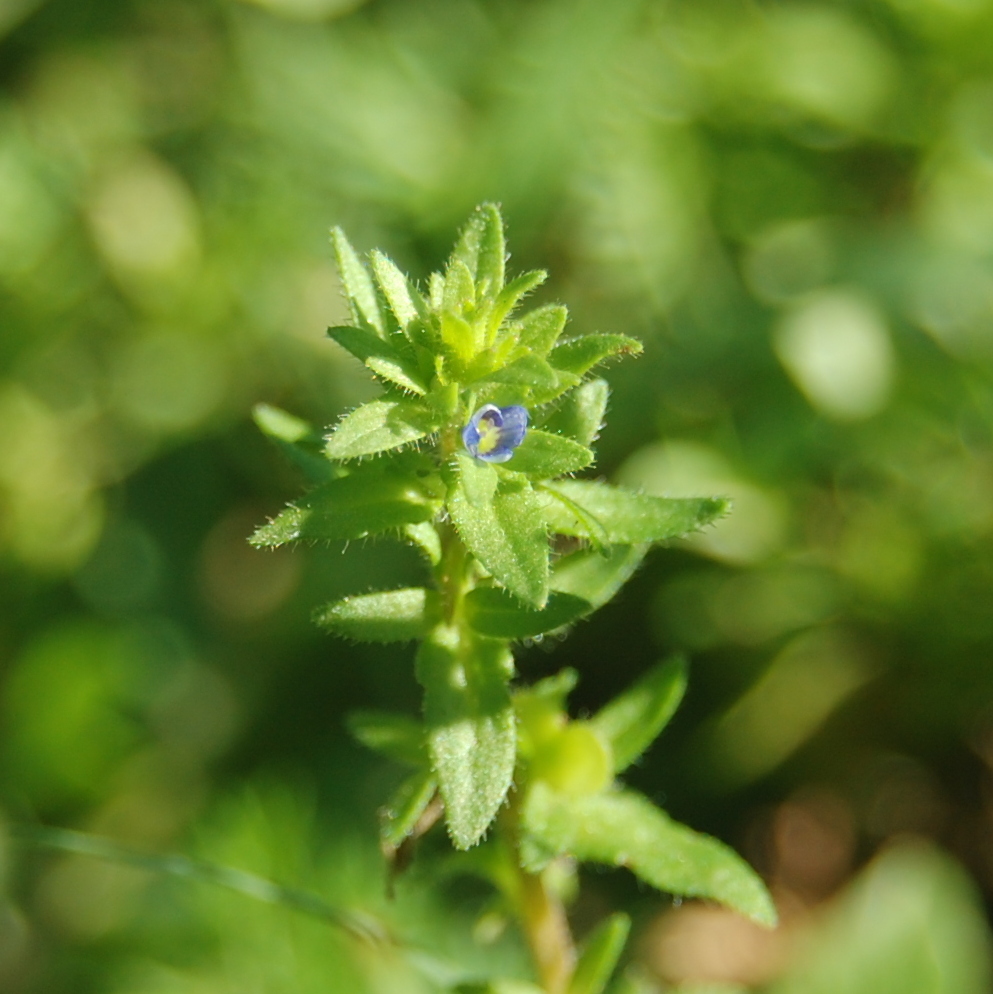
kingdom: Plantae
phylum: Tracheophyta
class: Magnoliopsida
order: Lamiales
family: Plantaginaceae
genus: Veronica
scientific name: Veronica arvensis
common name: Corn speedwell
